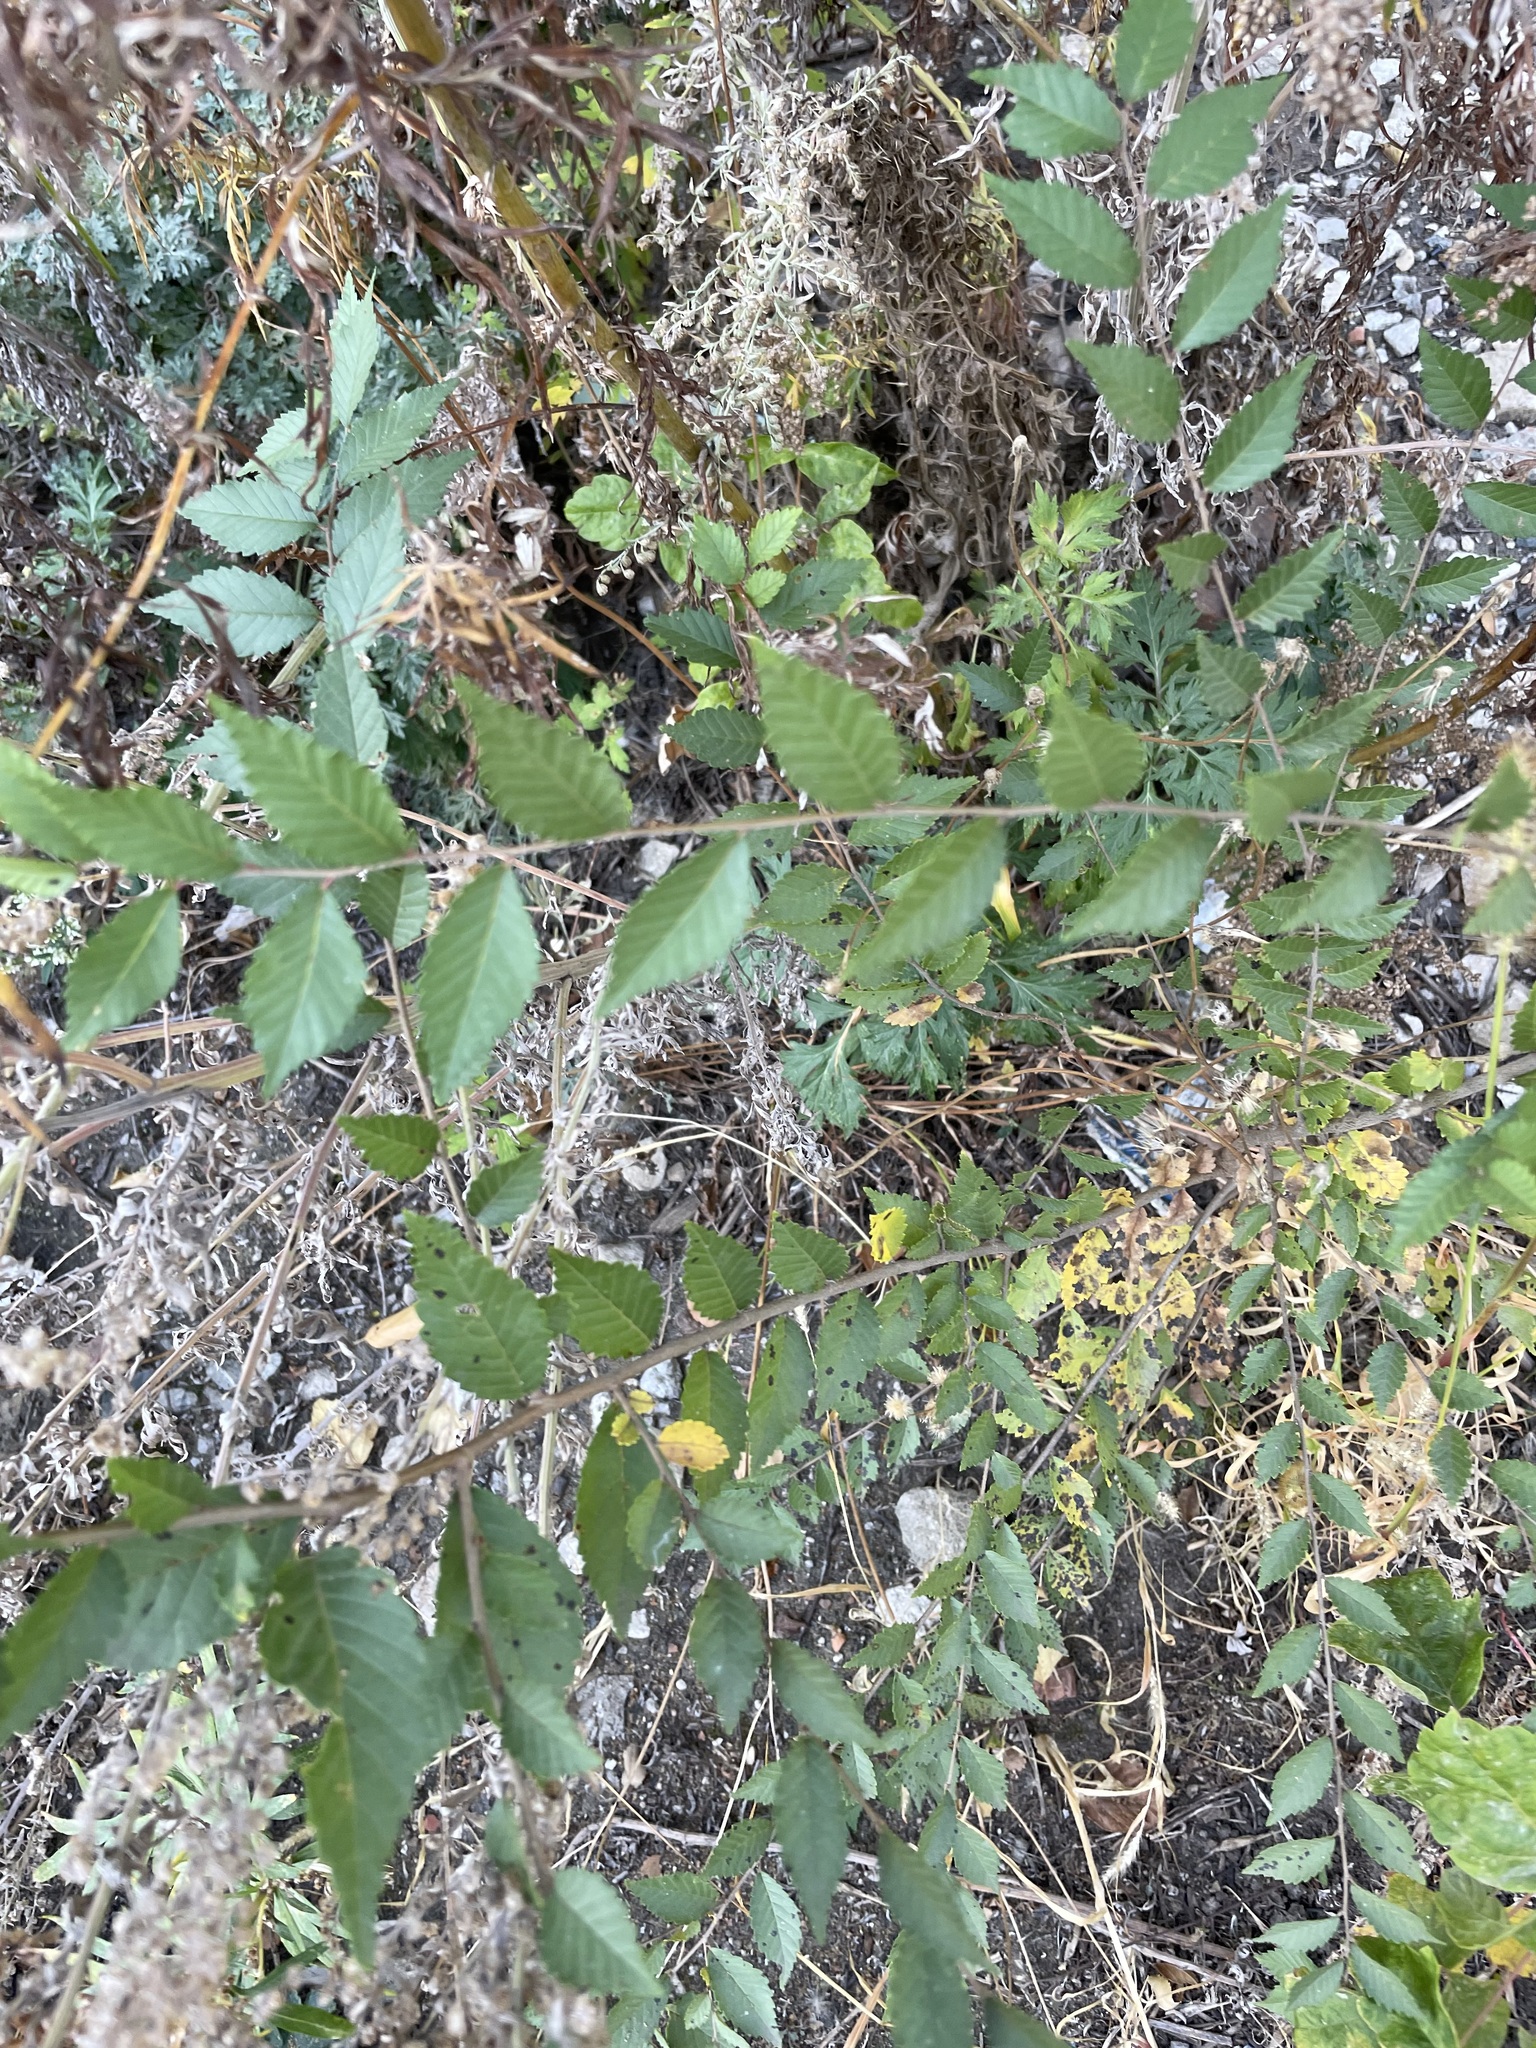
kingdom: Plantae
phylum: Tracheophyta
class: Magnoliopsida
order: Rosales
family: Ulmaceae
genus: Ulmus
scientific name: Ulmus pumila
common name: Siberian elm
